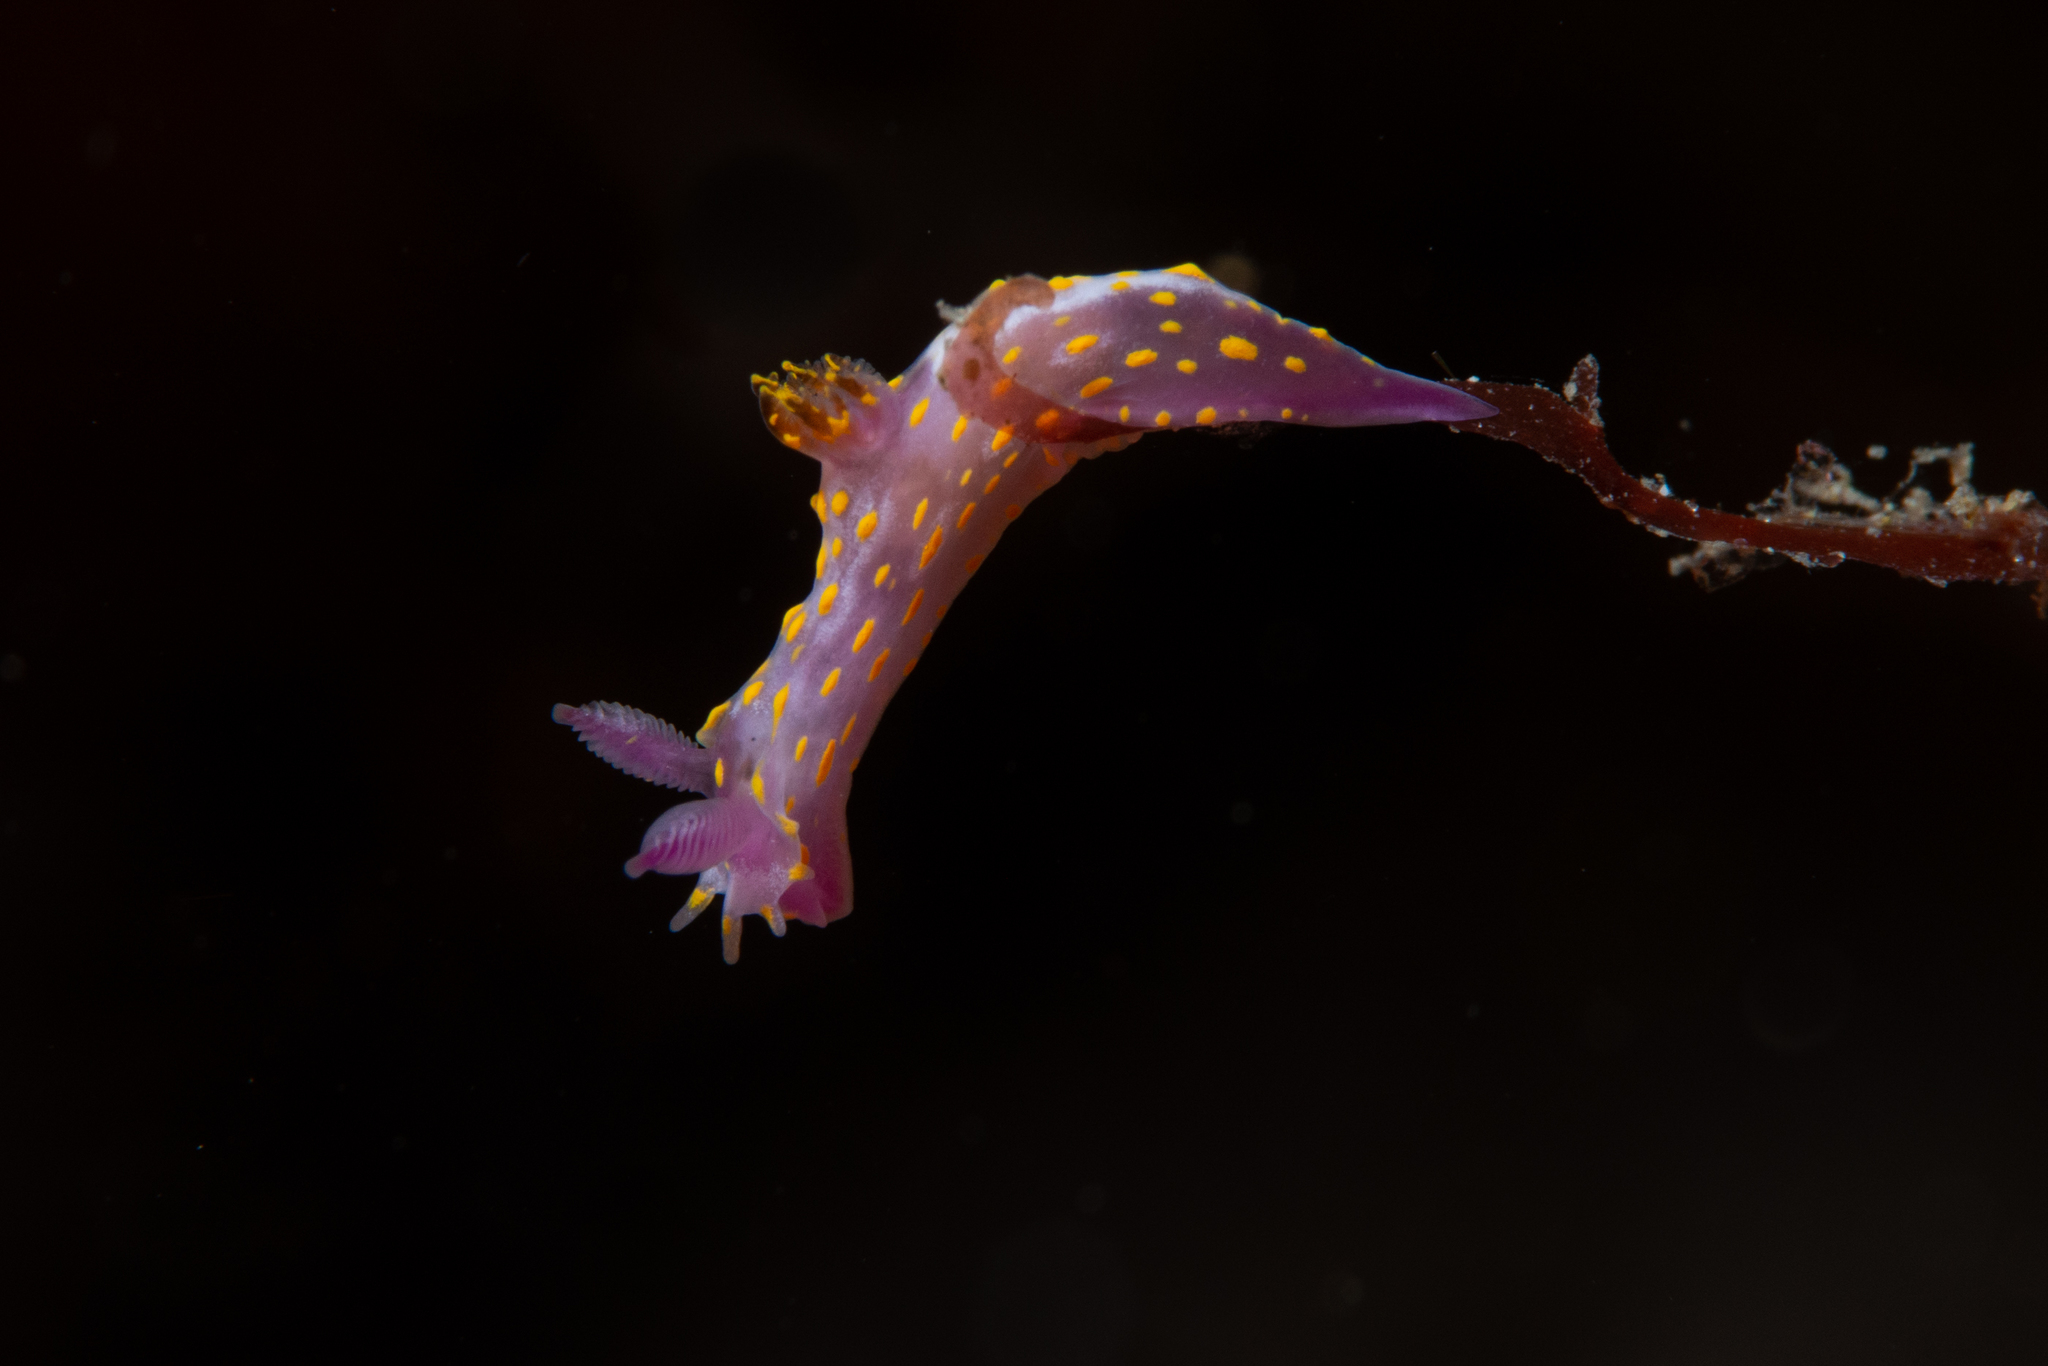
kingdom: Animalia
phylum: Mollusca
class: Gastropoda
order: Nudibranchia
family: Polyceridae
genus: Polycera
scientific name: Polycera janjukia
